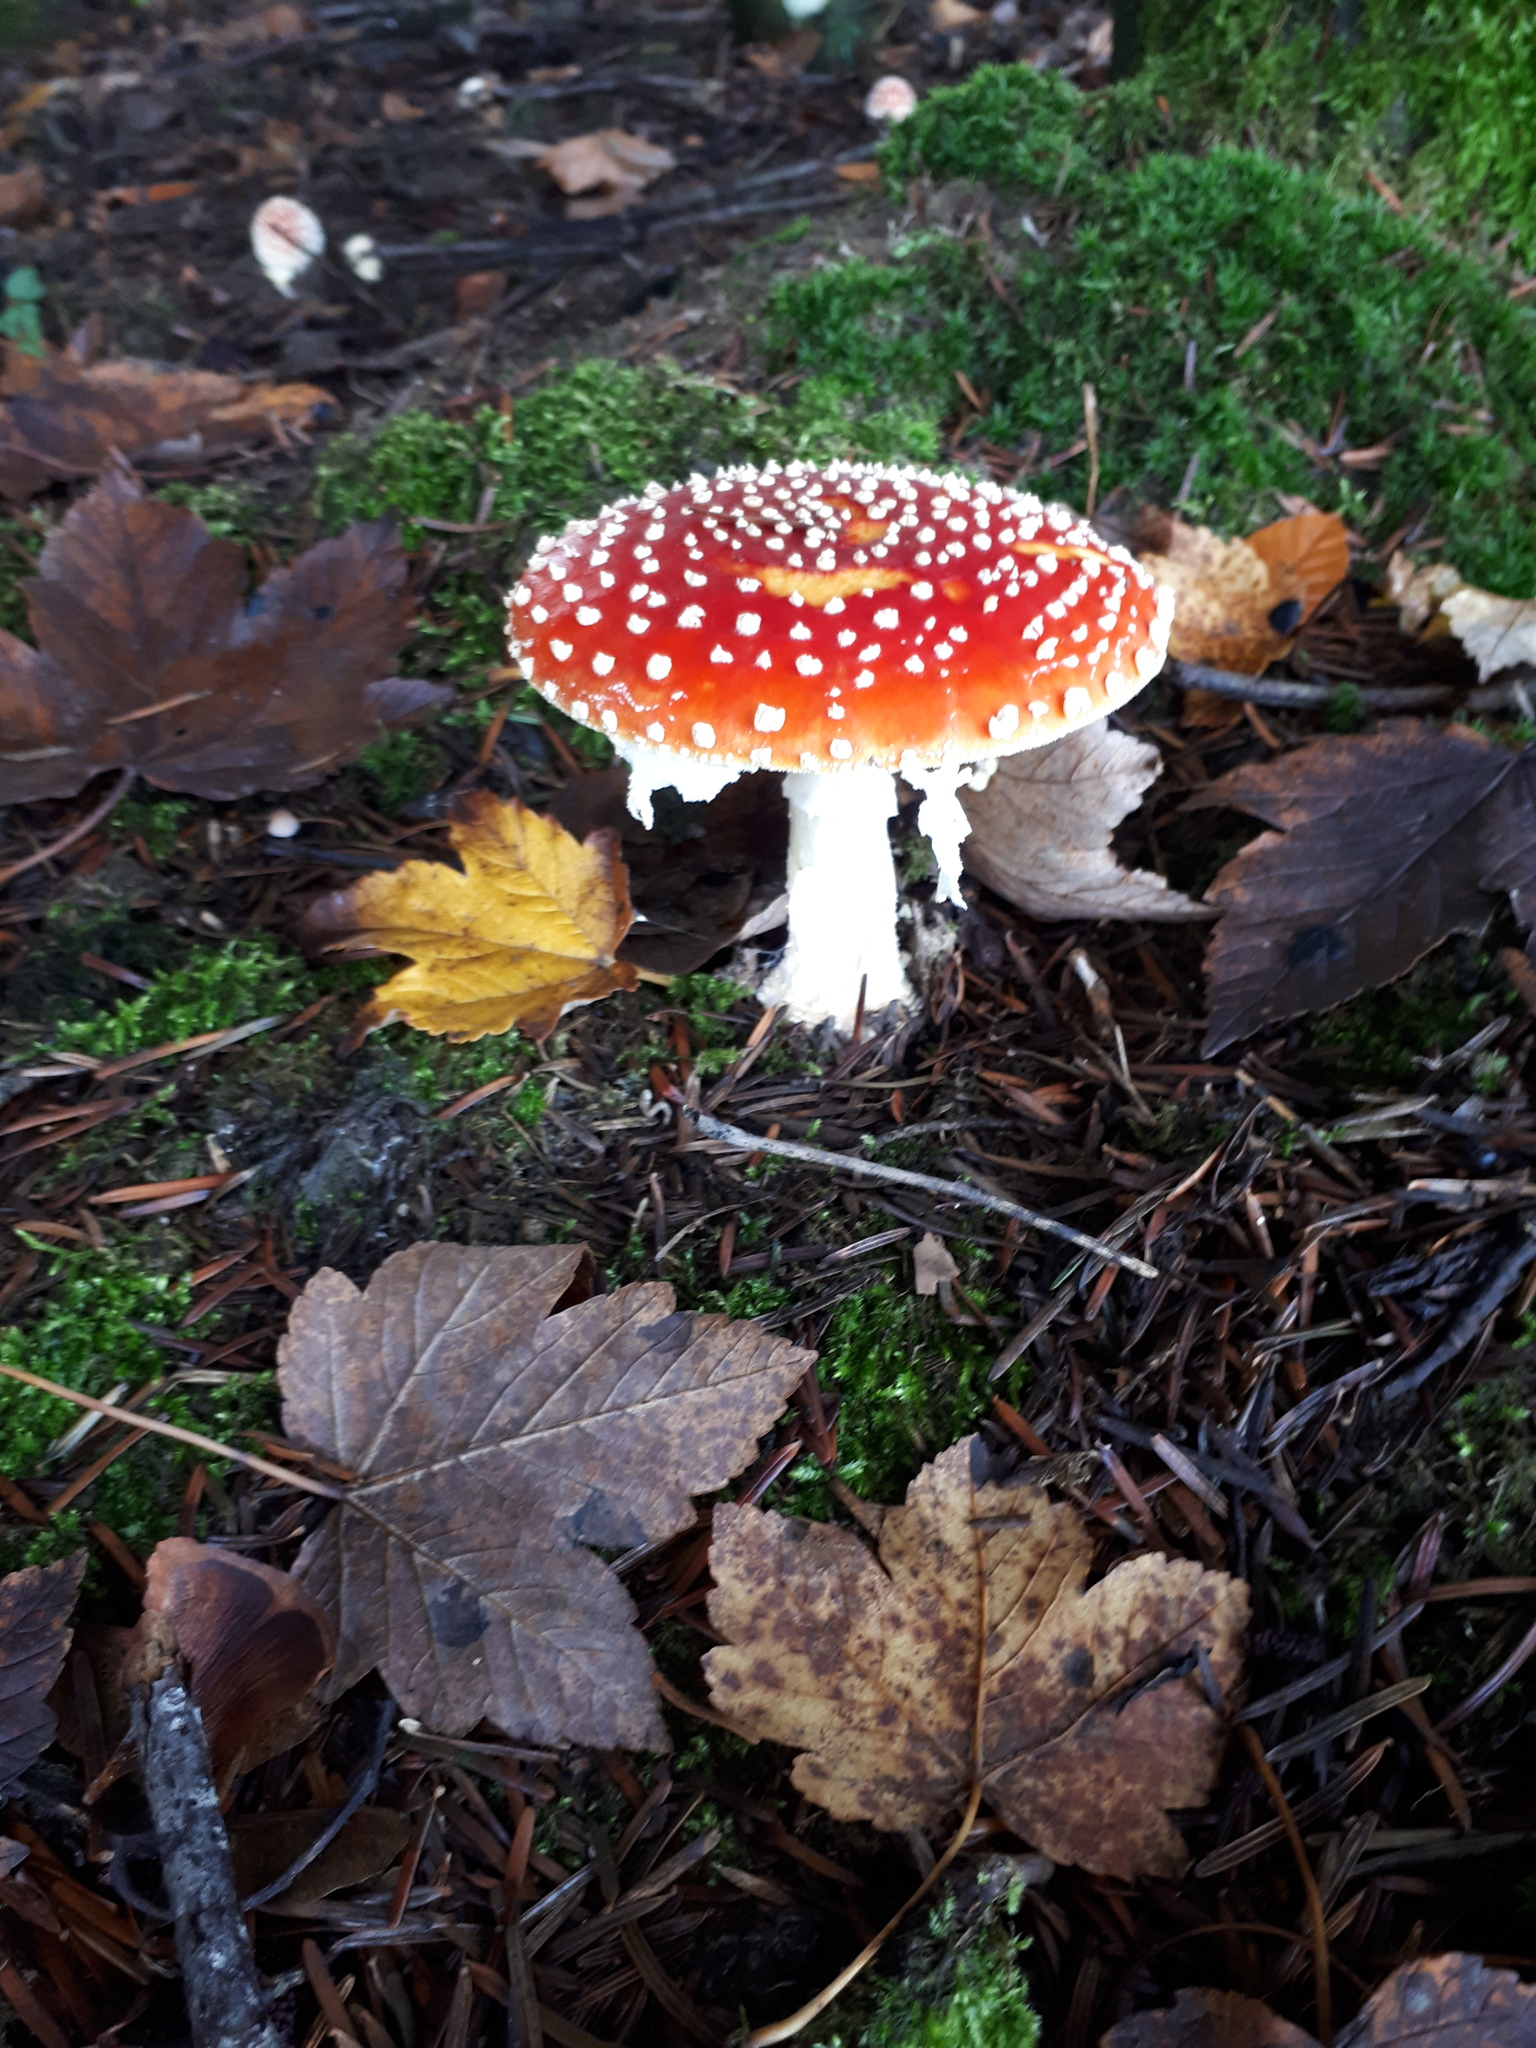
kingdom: Fungi
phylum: Basidiomycota
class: Agaricomycetes
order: Agaricales
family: Amanitaceae
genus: Amanita
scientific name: Amanita muscaria
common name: Fly agaric
